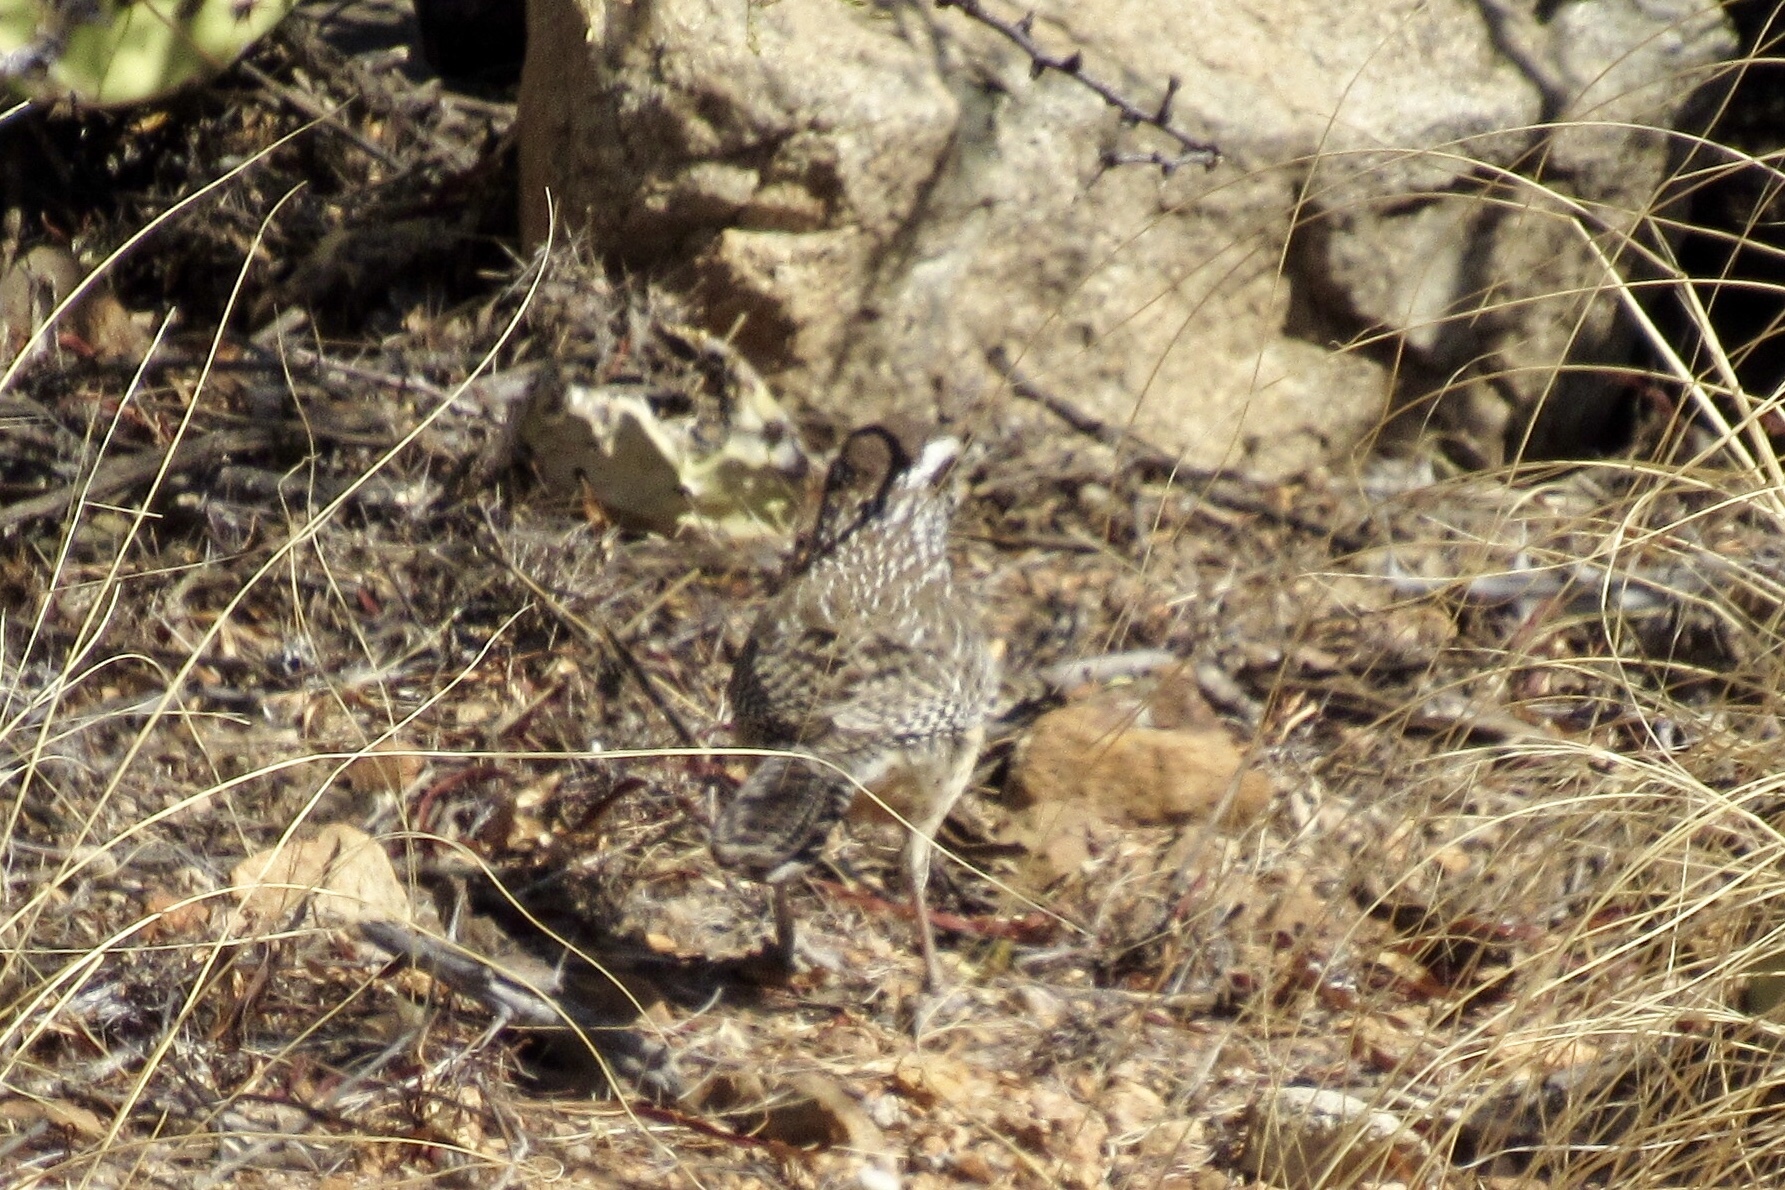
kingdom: Animalia
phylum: Chordata
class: Aves
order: Passeriformes
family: Troglodytidae
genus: Campylorhynchus
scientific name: Campylorhynchus brunneicapillus
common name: Cactus wren
